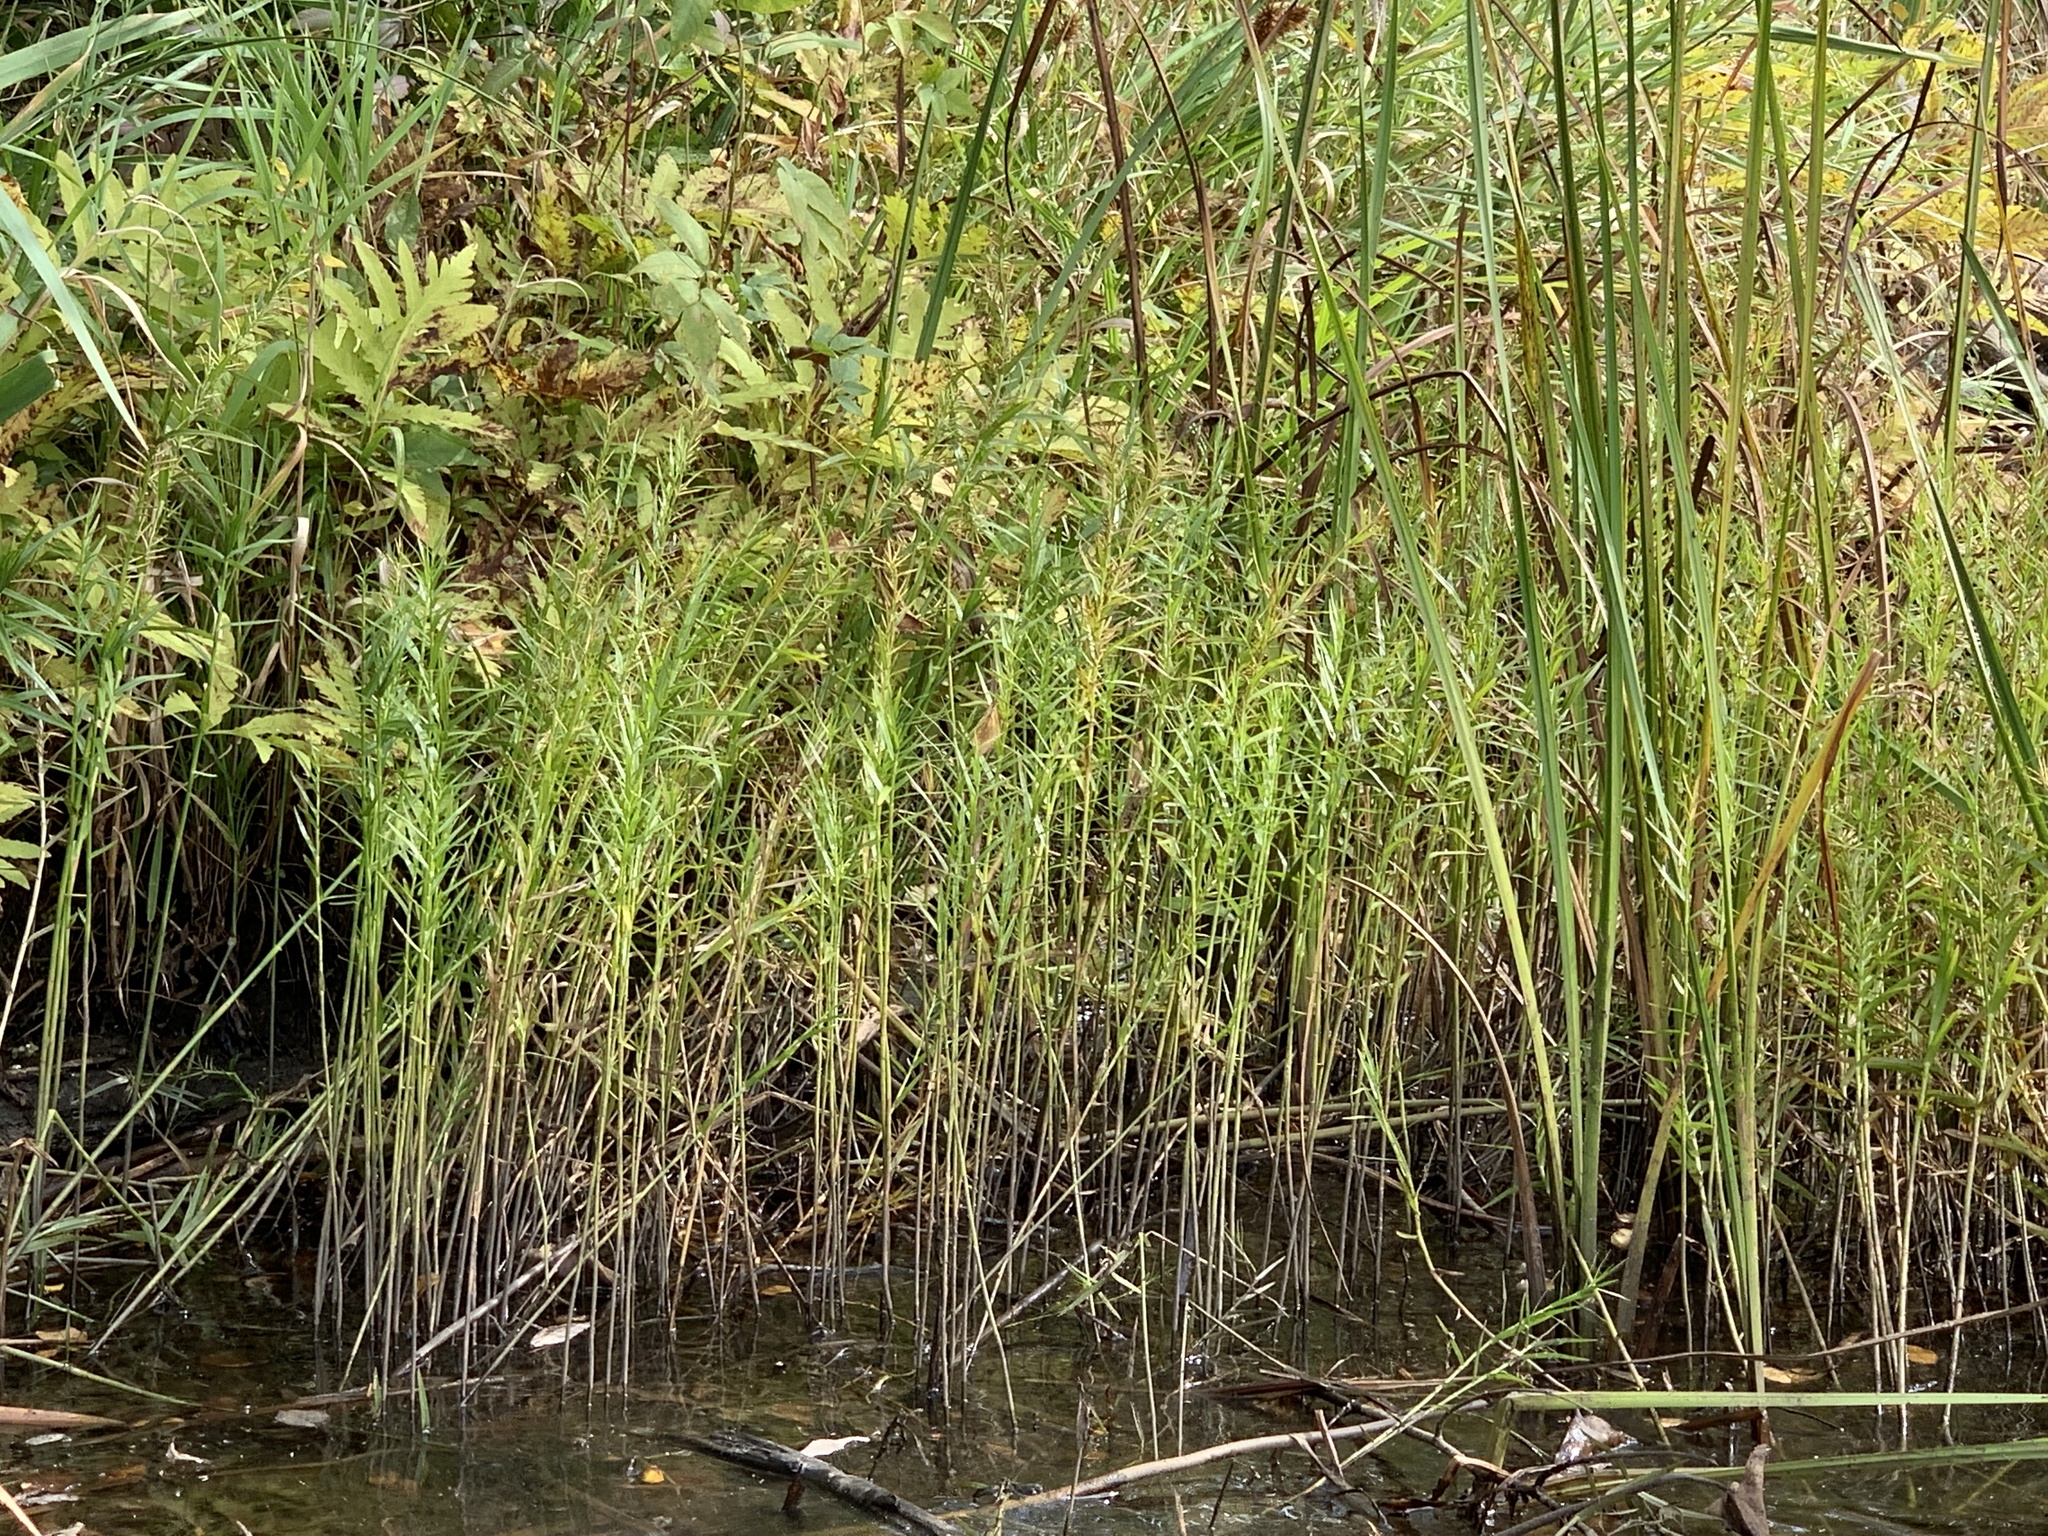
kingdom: Plantae
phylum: Tracheophyta
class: Liliopsida
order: Poales
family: Cyperaceae
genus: Dulichium
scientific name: Dulichium arundinaceum
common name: Three-way sedge
